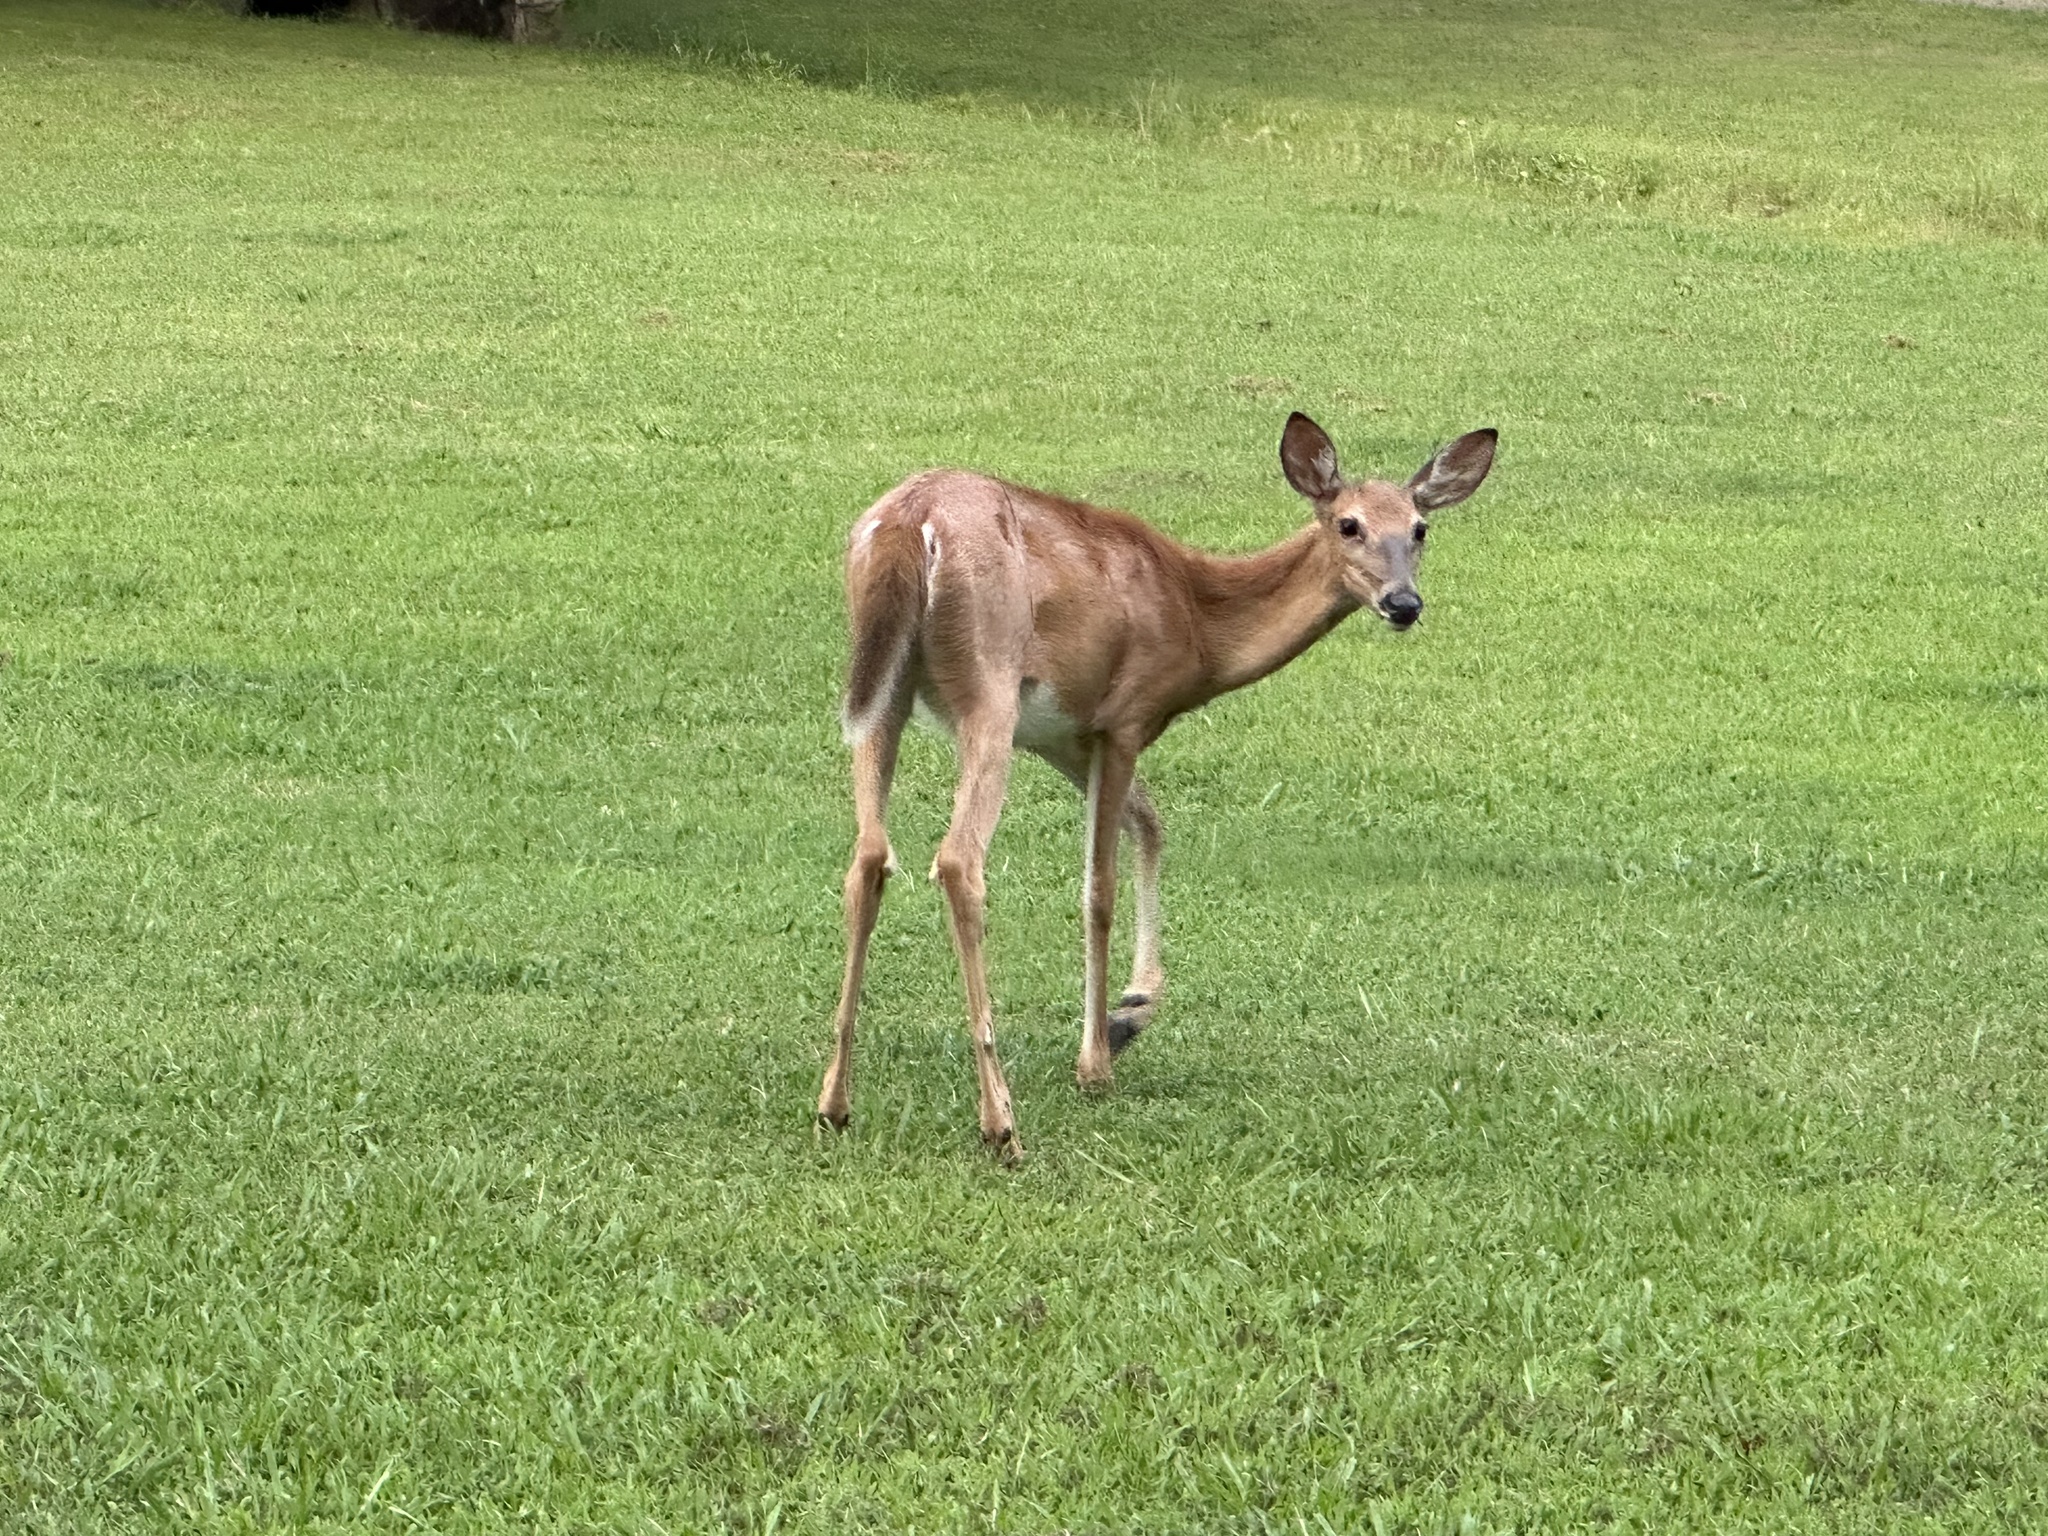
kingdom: Animalia
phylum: Chordata
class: Mammalia
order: Artiodactyla
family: Cervidae
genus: Odocoileus
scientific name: Odocoileus virginianus
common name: White-tailed deer
